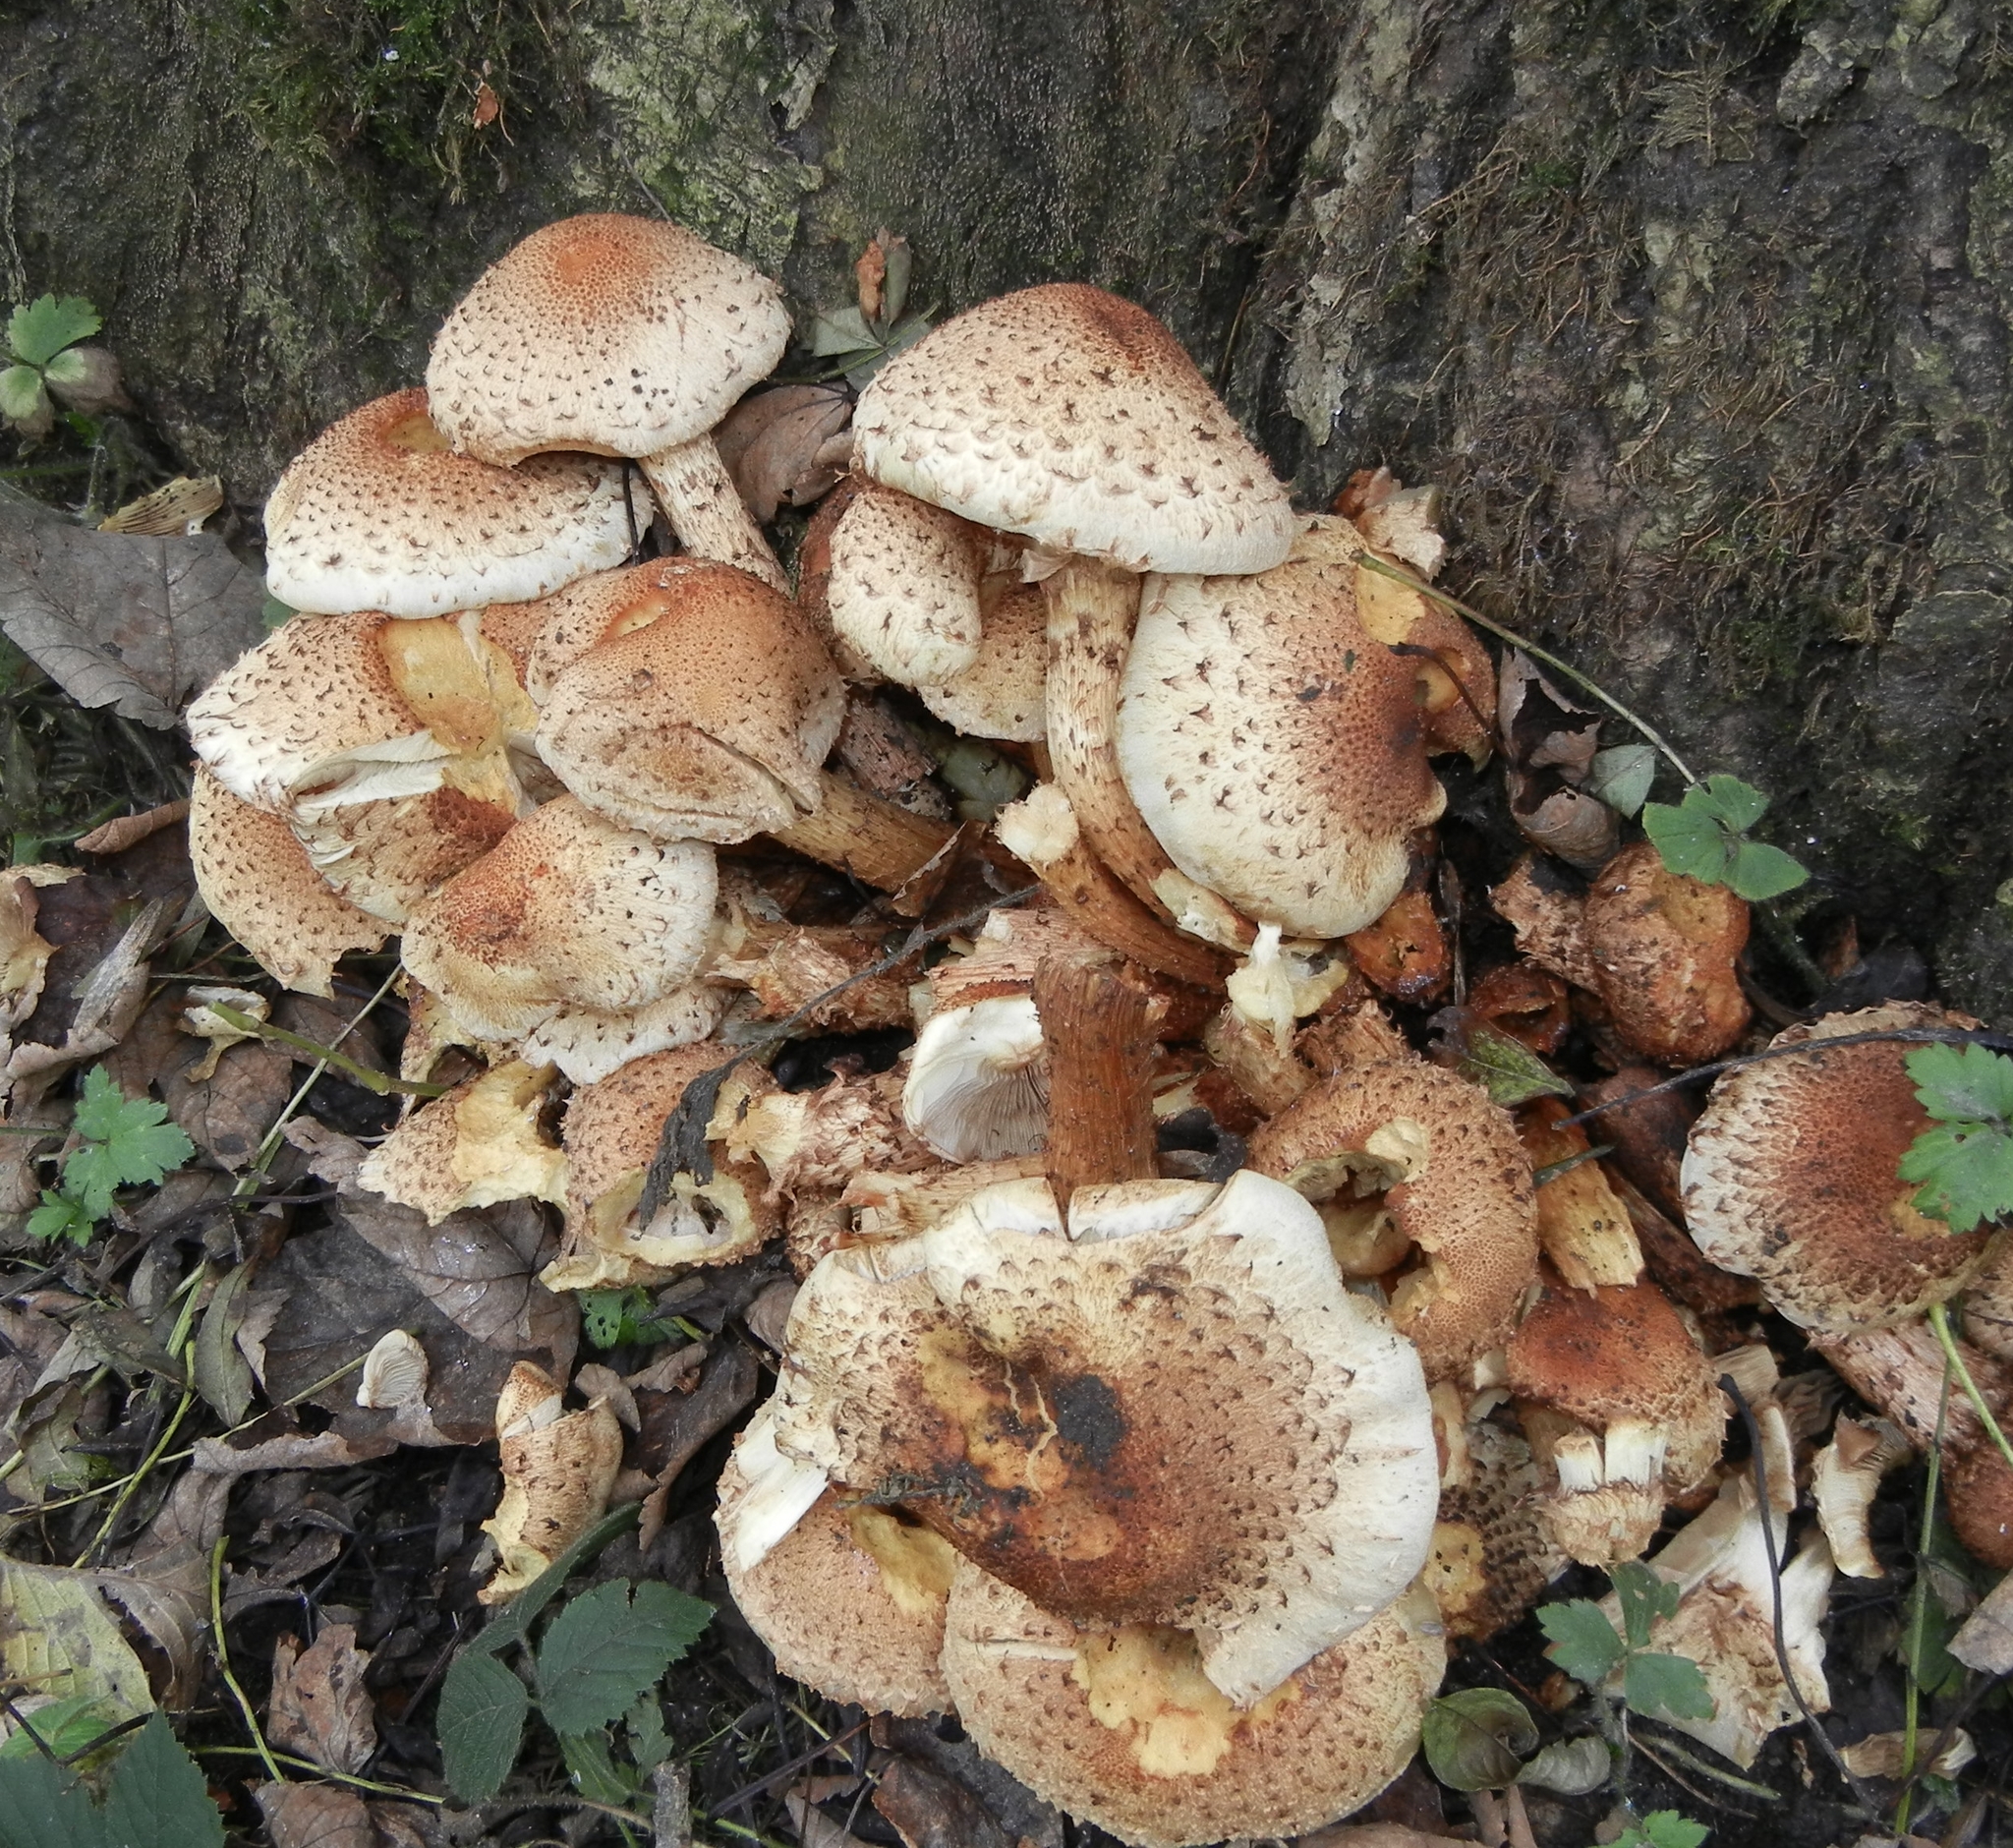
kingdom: Fungi
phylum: Basidiomycota
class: Agaricomycetes
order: Agaricales
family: Strophariaceae
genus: Pholiota
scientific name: Pholiota squarrosa
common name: Shaggy pholiota
